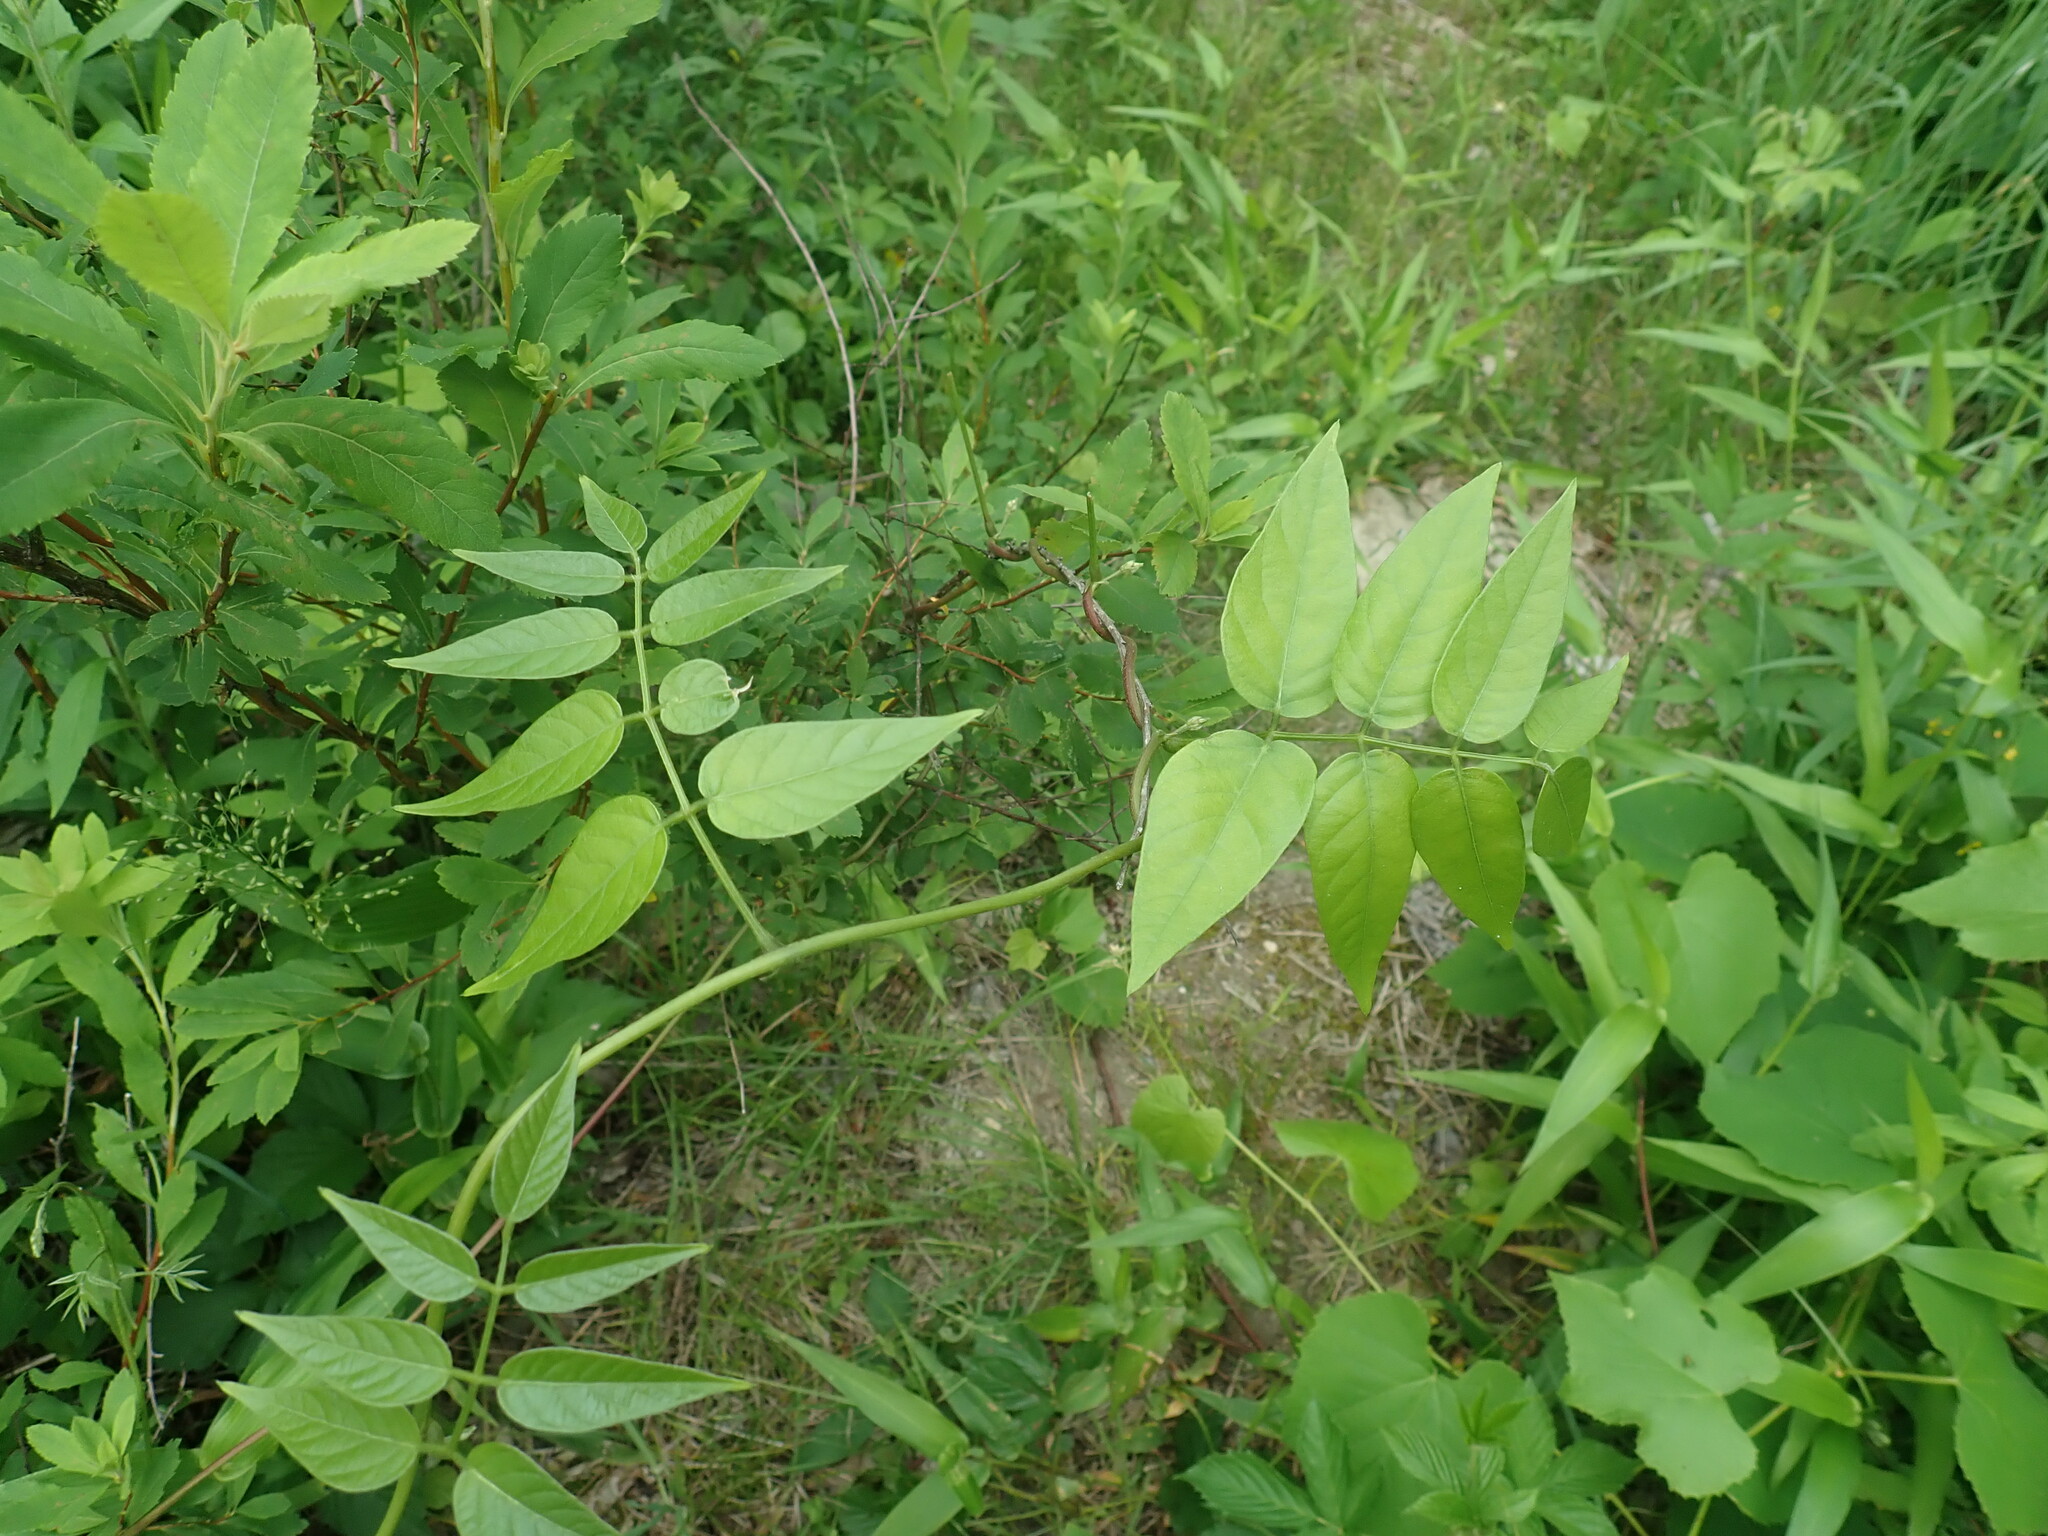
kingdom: Plantae
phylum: Tracheophyta
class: Magnoliopsida
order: Fabales
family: Fabaceae
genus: Apios
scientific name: Apios americana
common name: American potato-bean
